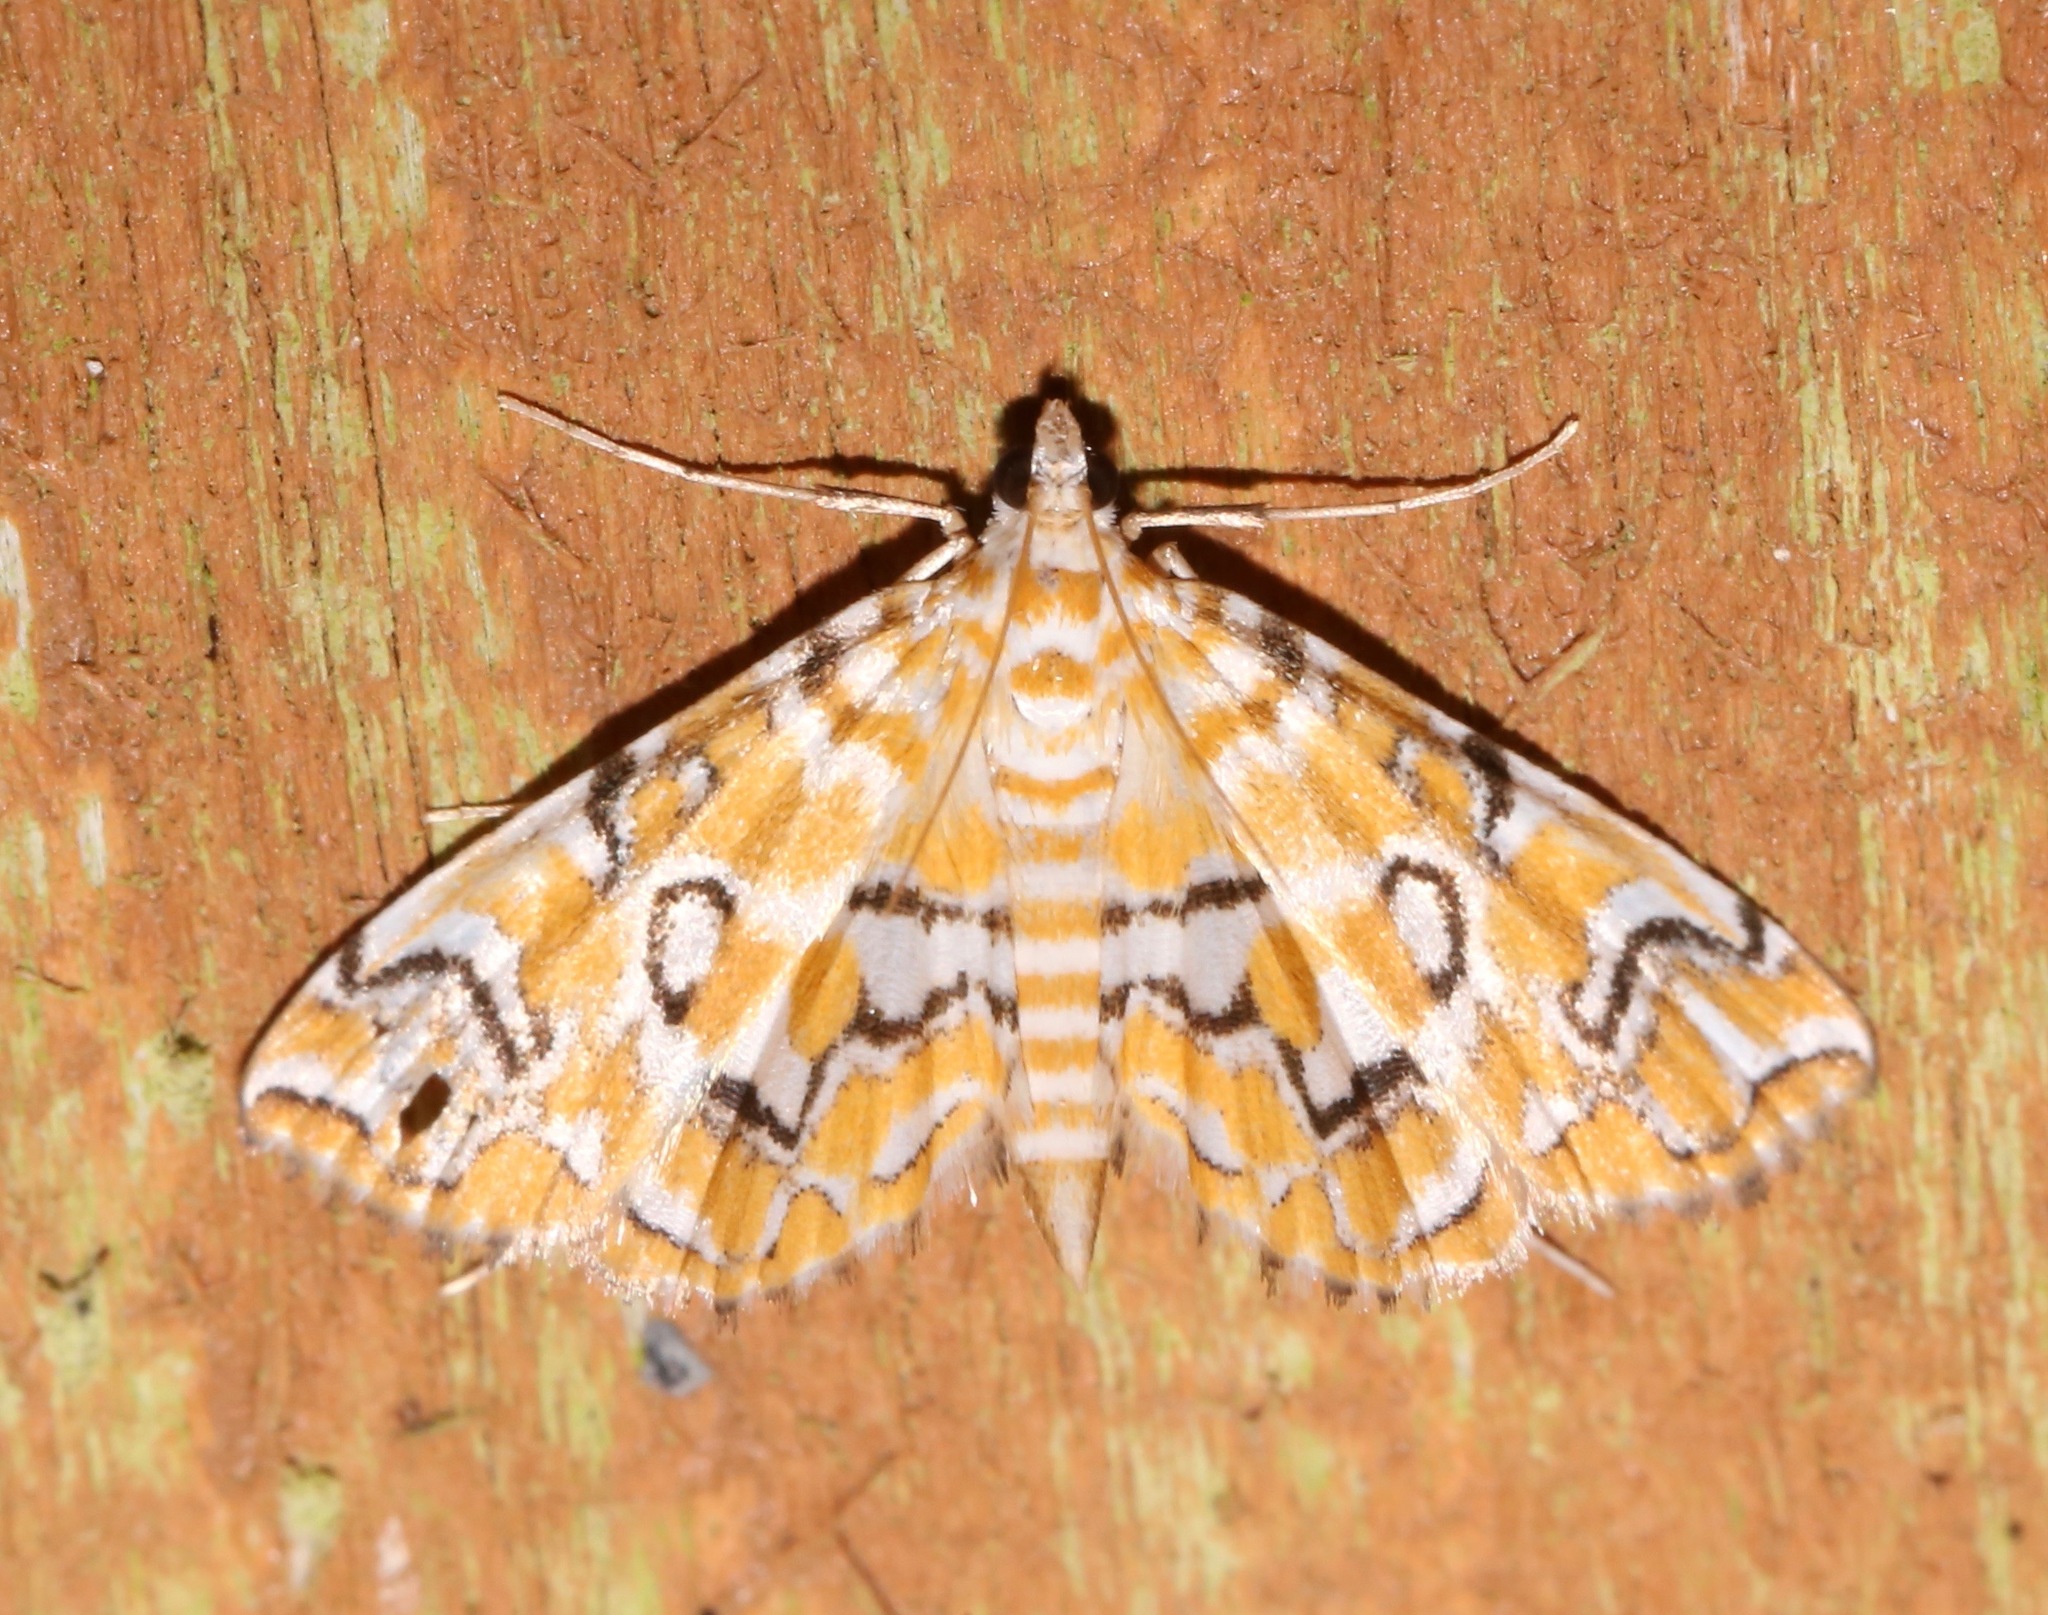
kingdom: Animalia
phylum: Arthropoda
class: Insecta
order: Lepidoptera
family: Crambidae
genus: Elophila
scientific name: Elophila icciusalis
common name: Pondside pyralid moth
